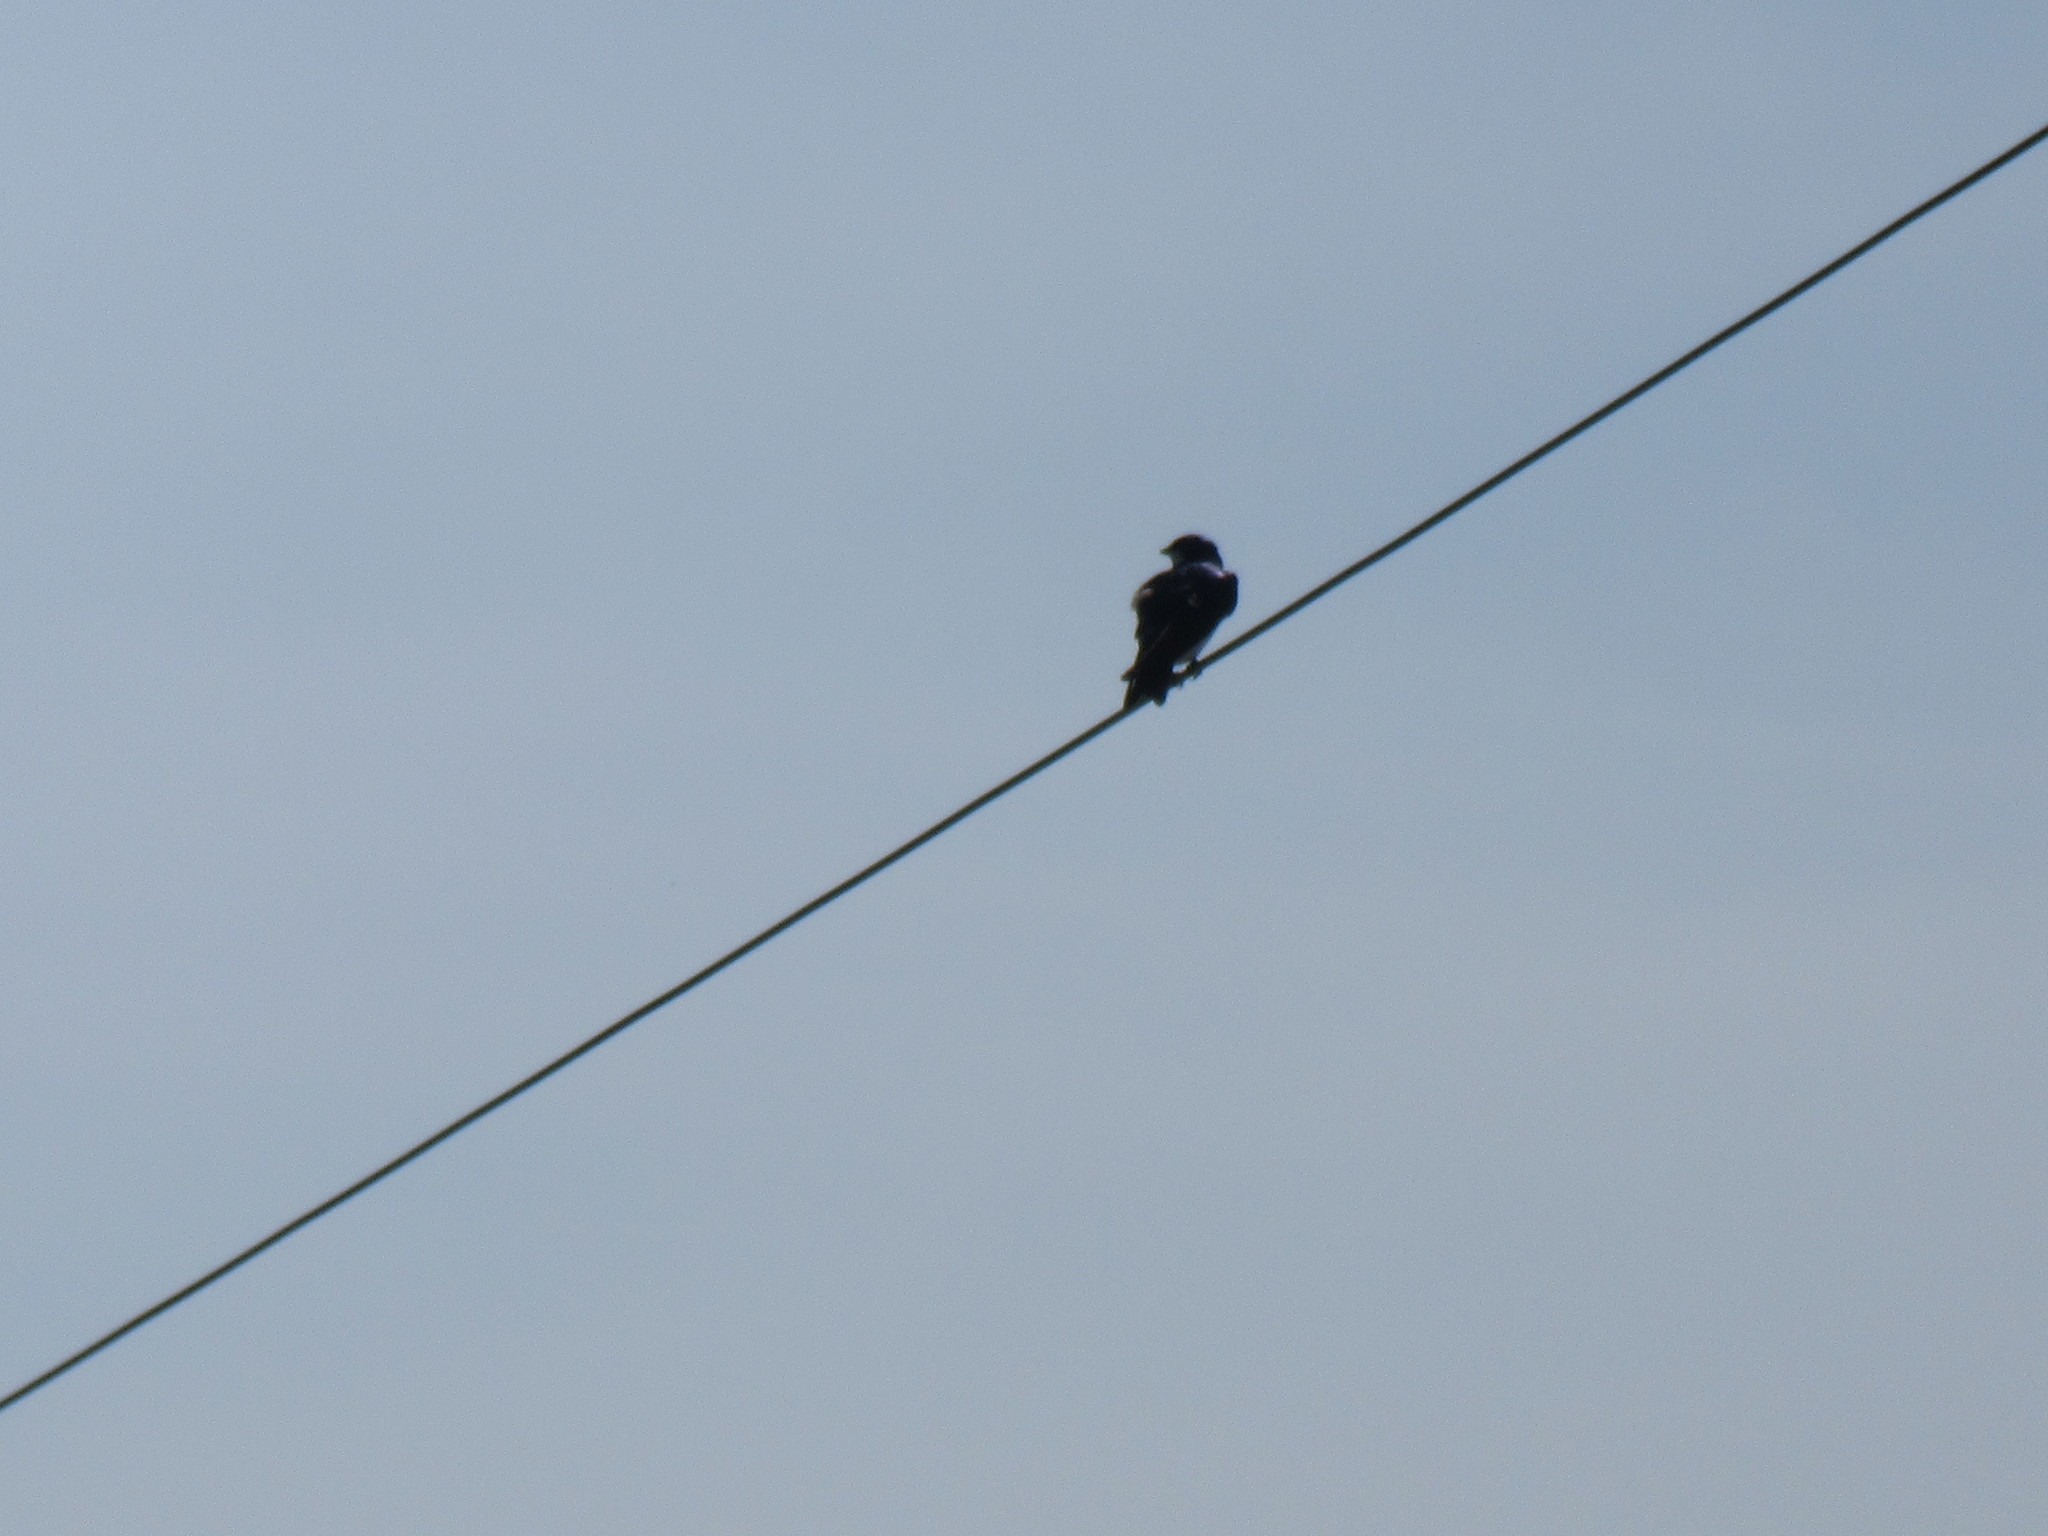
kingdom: Animalia
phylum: Chordata
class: Aves
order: Passeriformes
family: Hirundinidae
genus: Tachycineta
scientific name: Tachycineta bicolor
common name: Tree swallow
